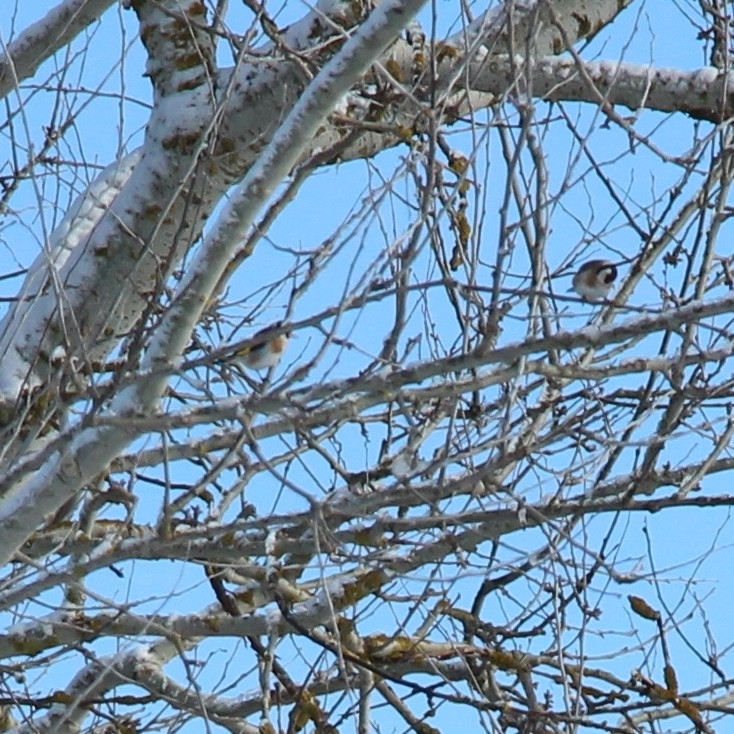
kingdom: Animalia
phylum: Chordata
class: Aves
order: Passeriformes
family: Fringillidae
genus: Carduelis
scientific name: Carduelis carduelis
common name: European goldfinch
